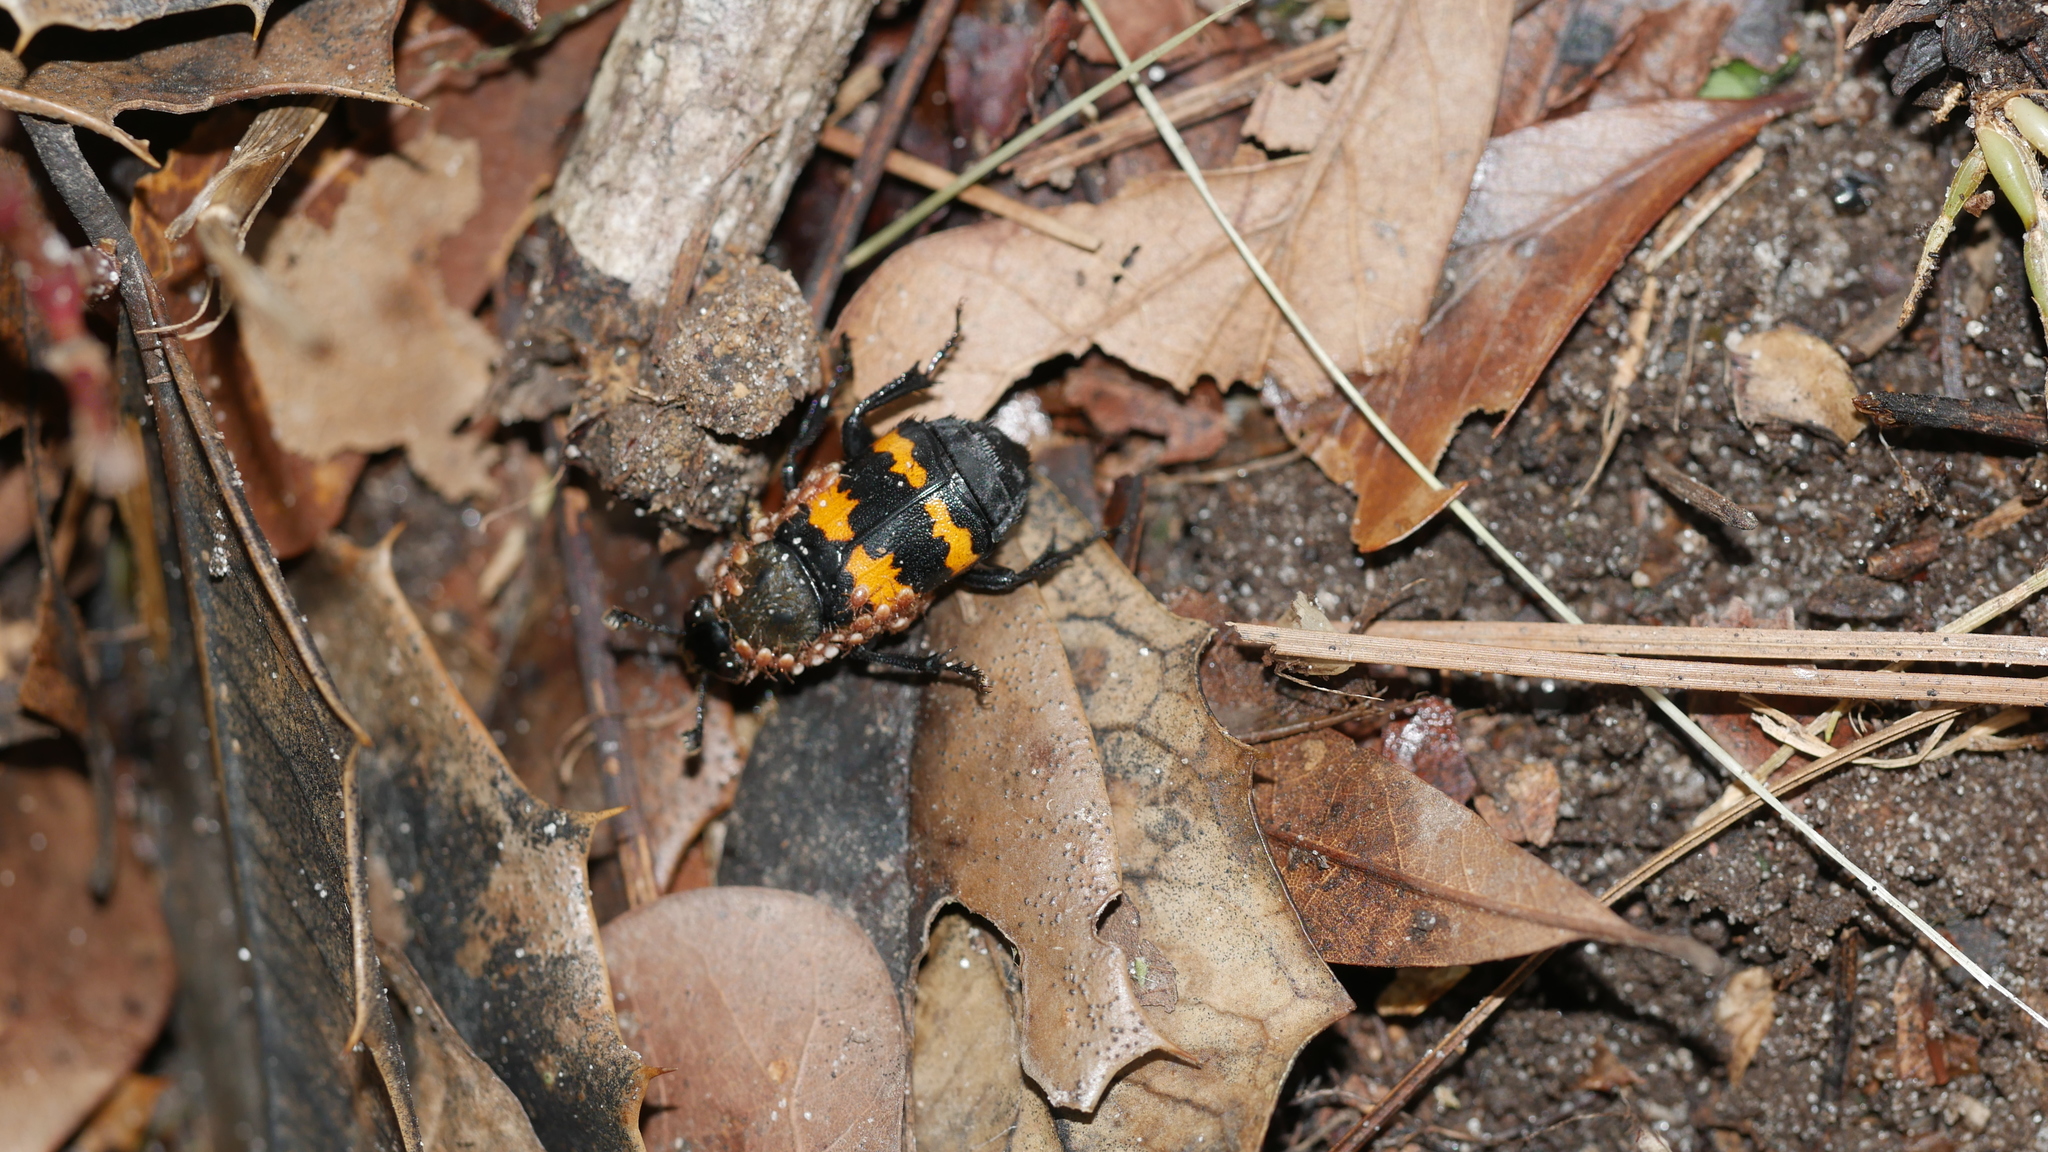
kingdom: Animalia
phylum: Arthropoda
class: Insecta
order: Coleoptera
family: Staphylinidae
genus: Nicrophorus
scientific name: Nicrophorus tomentosus
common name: Tomentose burying beetle
